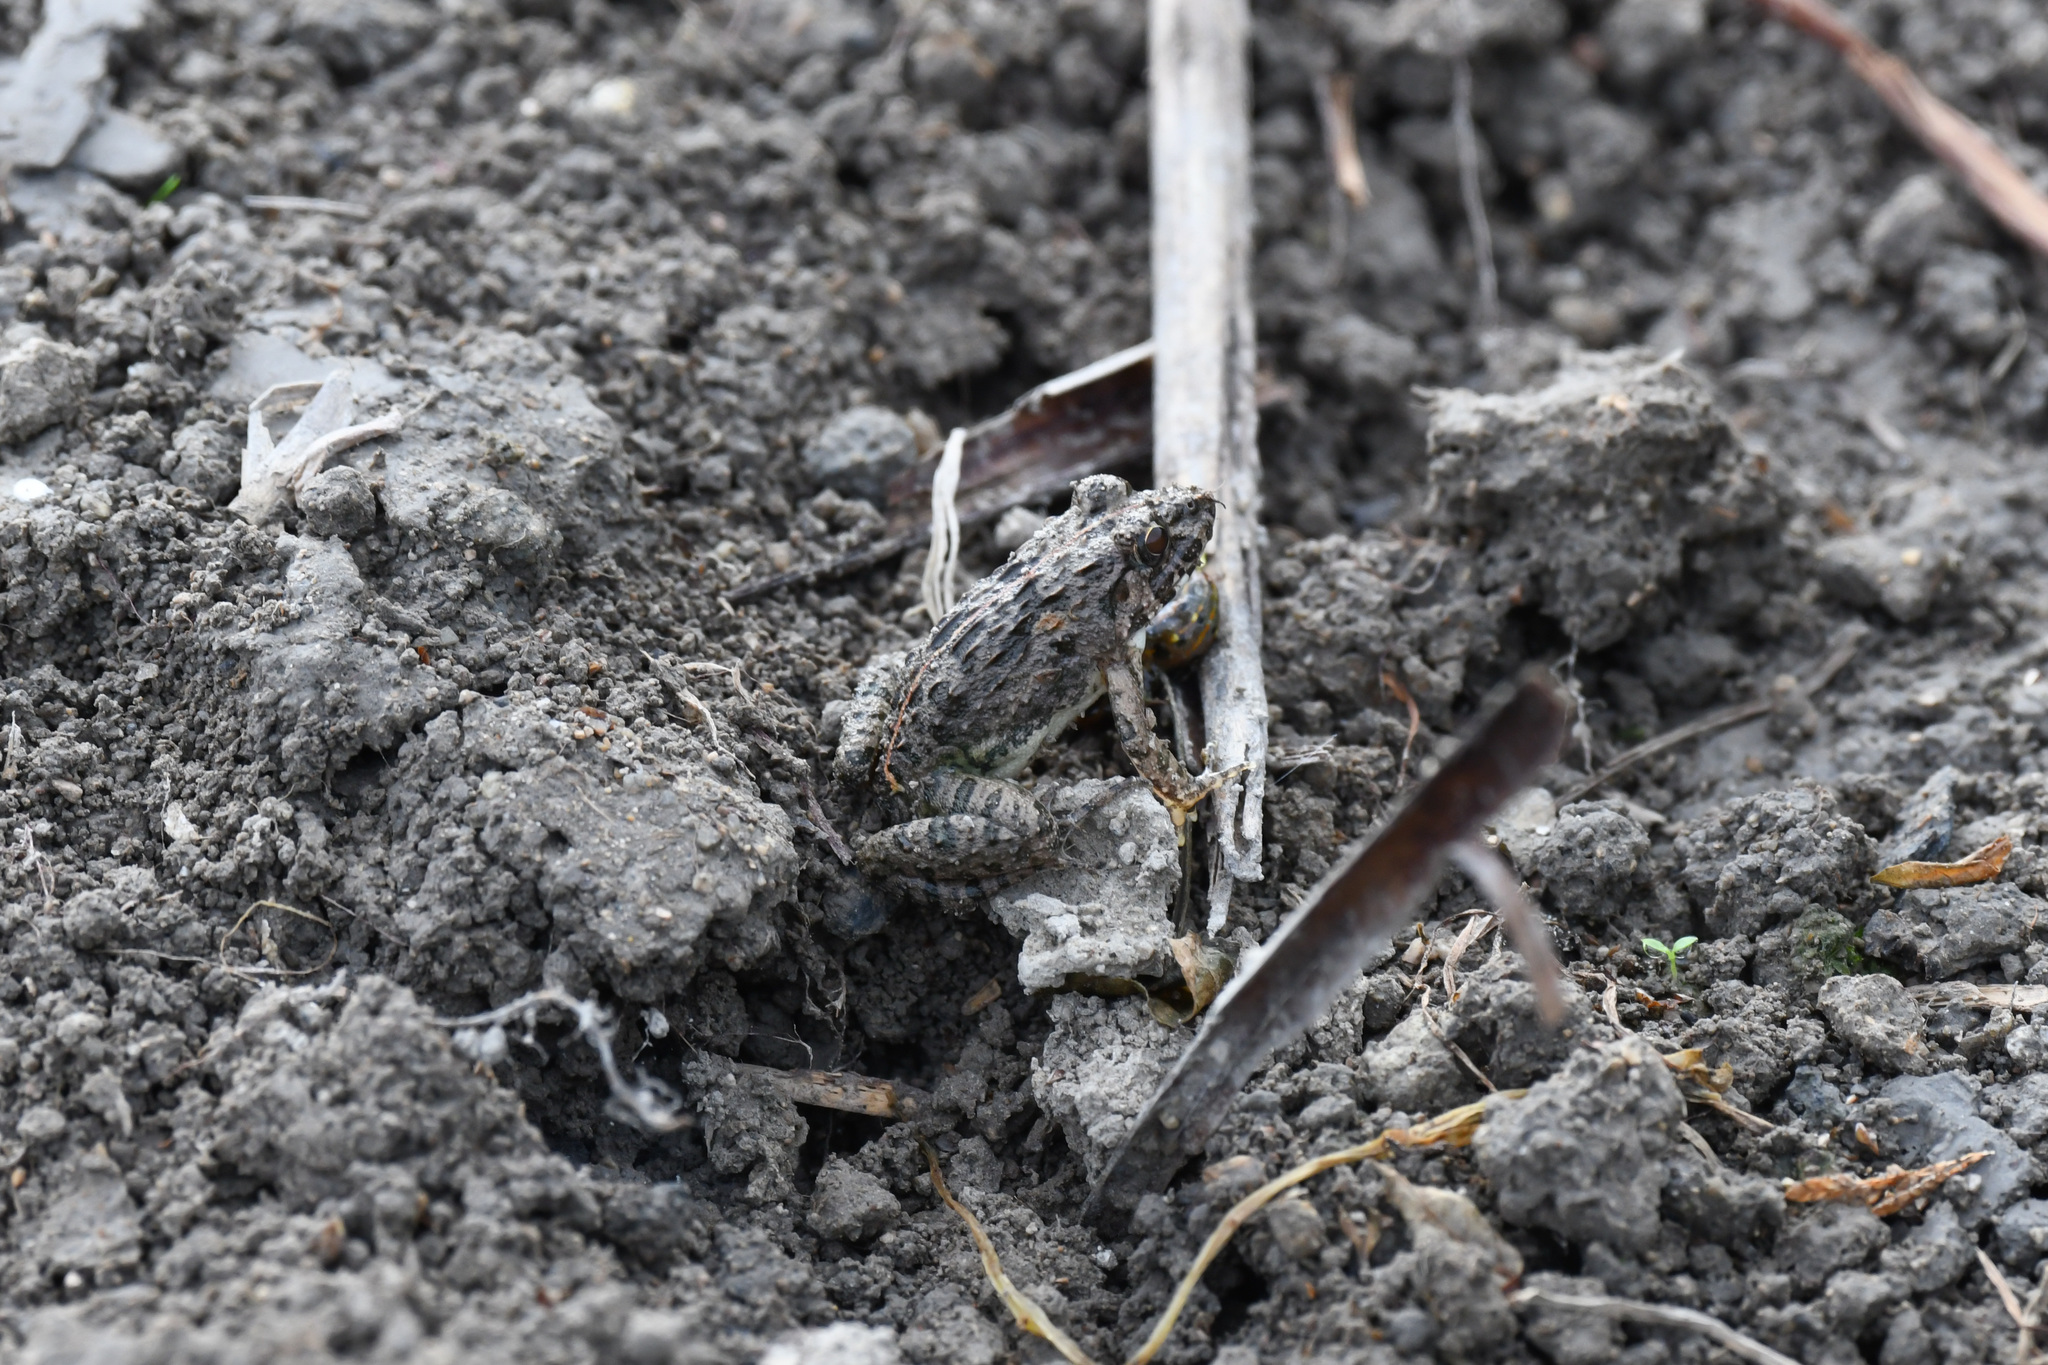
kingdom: Animalia
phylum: Chordata
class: Amphibia
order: Anura
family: Dicroglossidae
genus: Fejervarya
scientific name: Fejervarya multistriata
